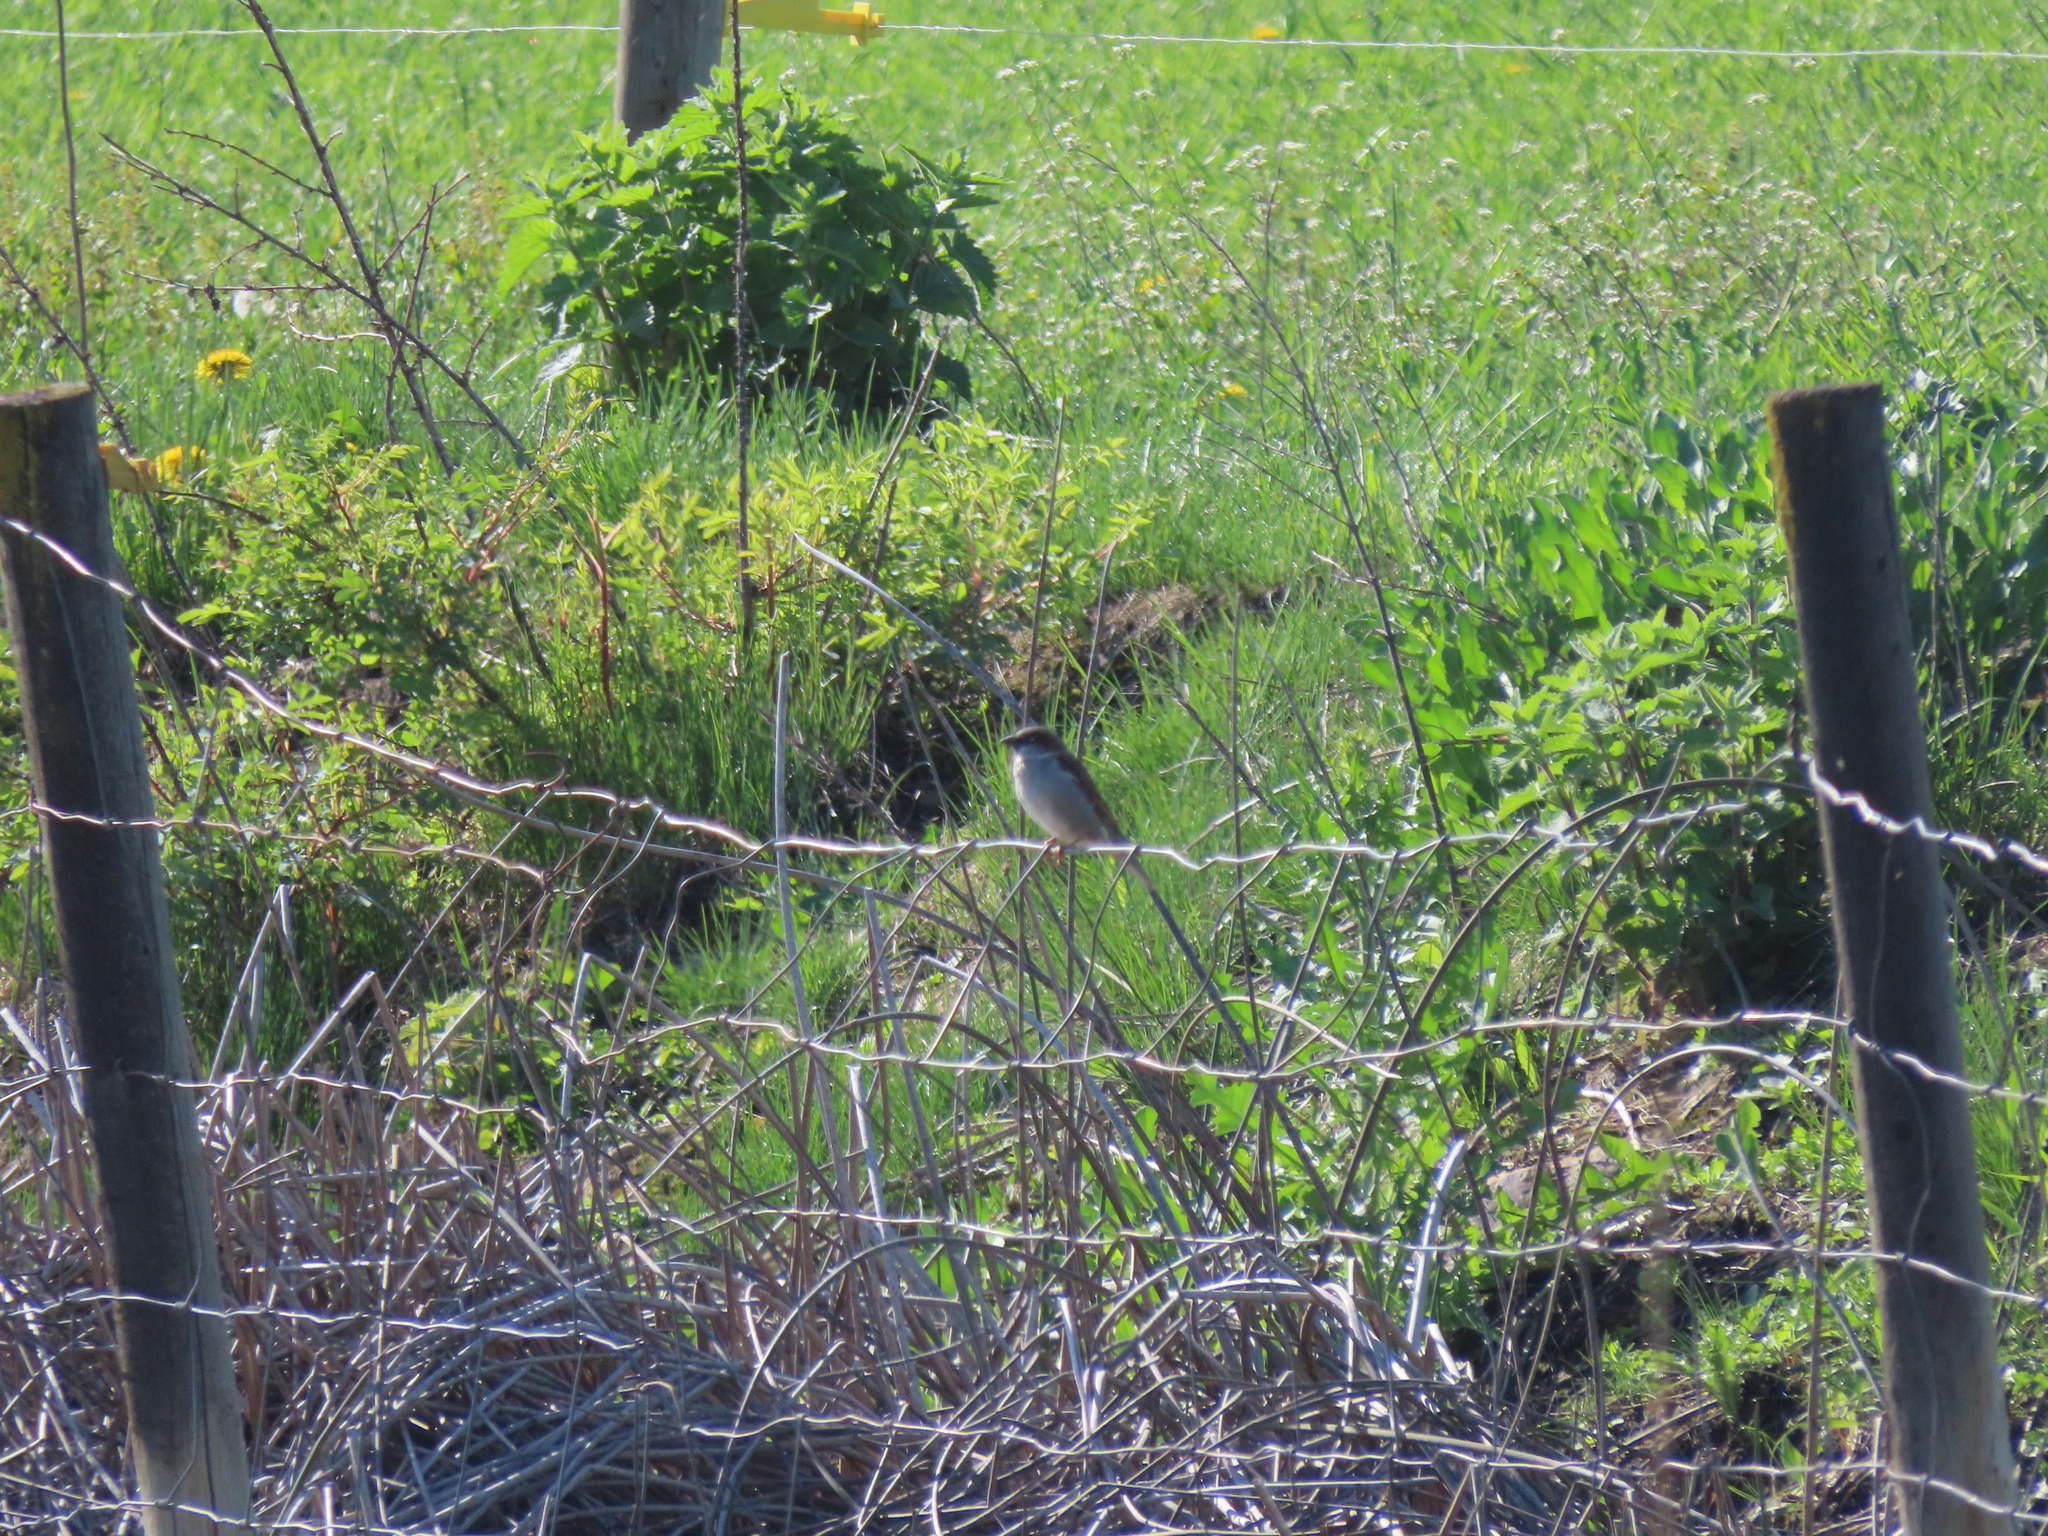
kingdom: Animalia
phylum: Chordata
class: Aves
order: Passeriformes
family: Passeridae
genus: Passer
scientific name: Passer domesticus
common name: House sparrow
